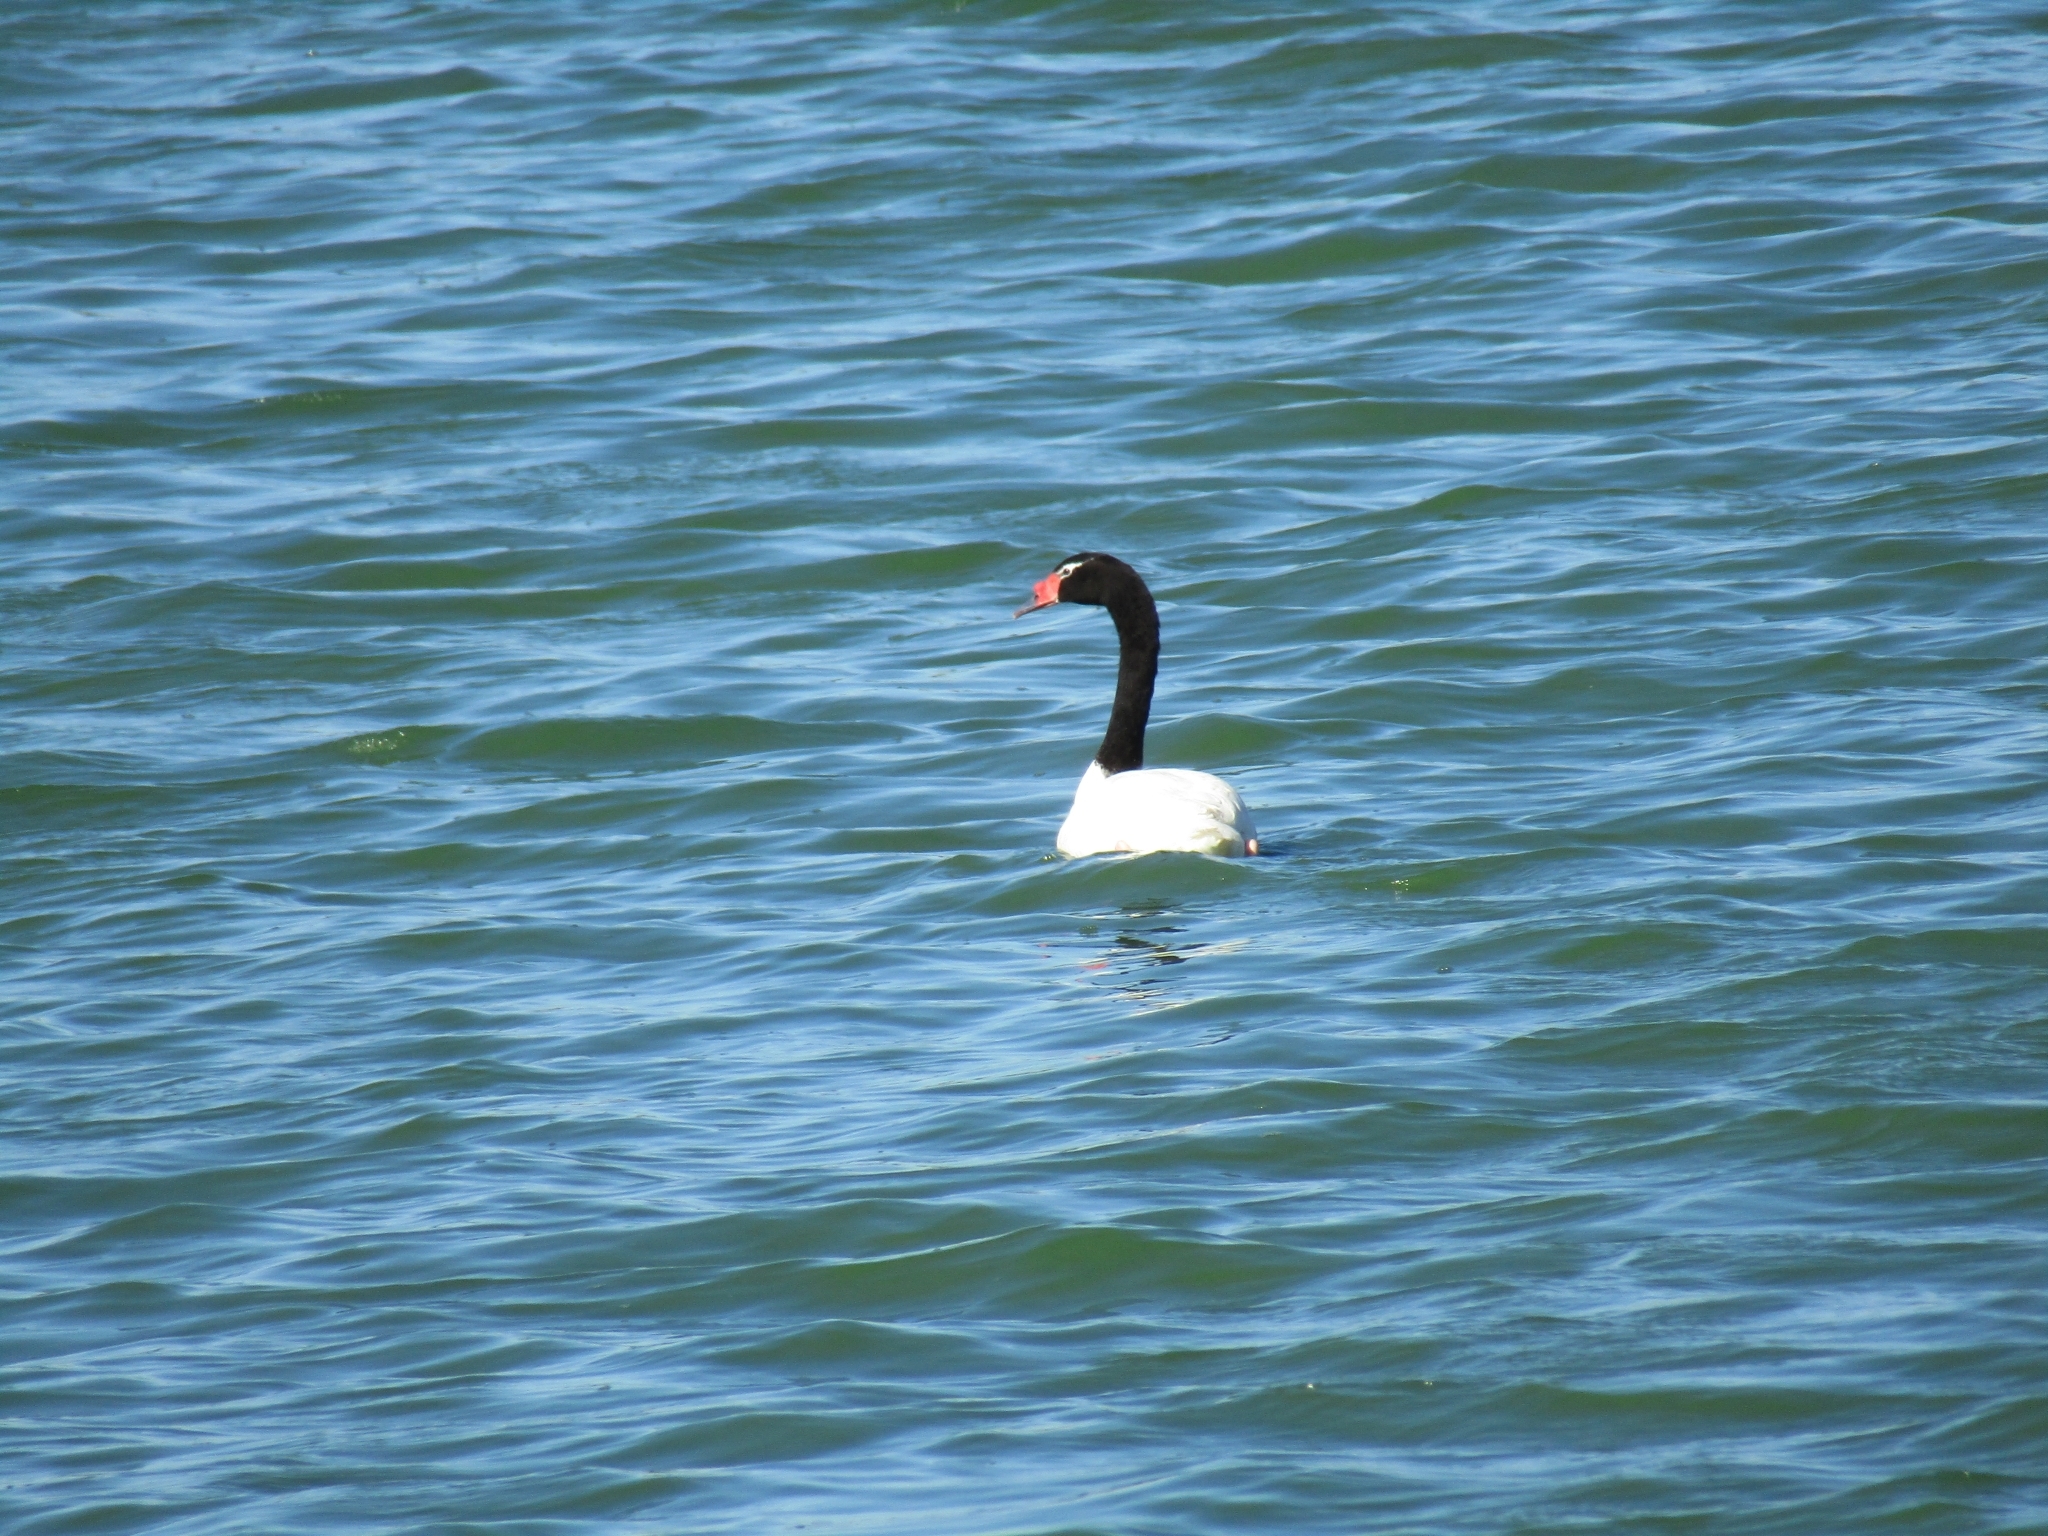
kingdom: Animalia
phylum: Chordata
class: Aves
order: Anseriformes
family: Anatidae
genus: Cygnus
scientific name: Cygnus melancoryphus
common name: Black-necked swan
